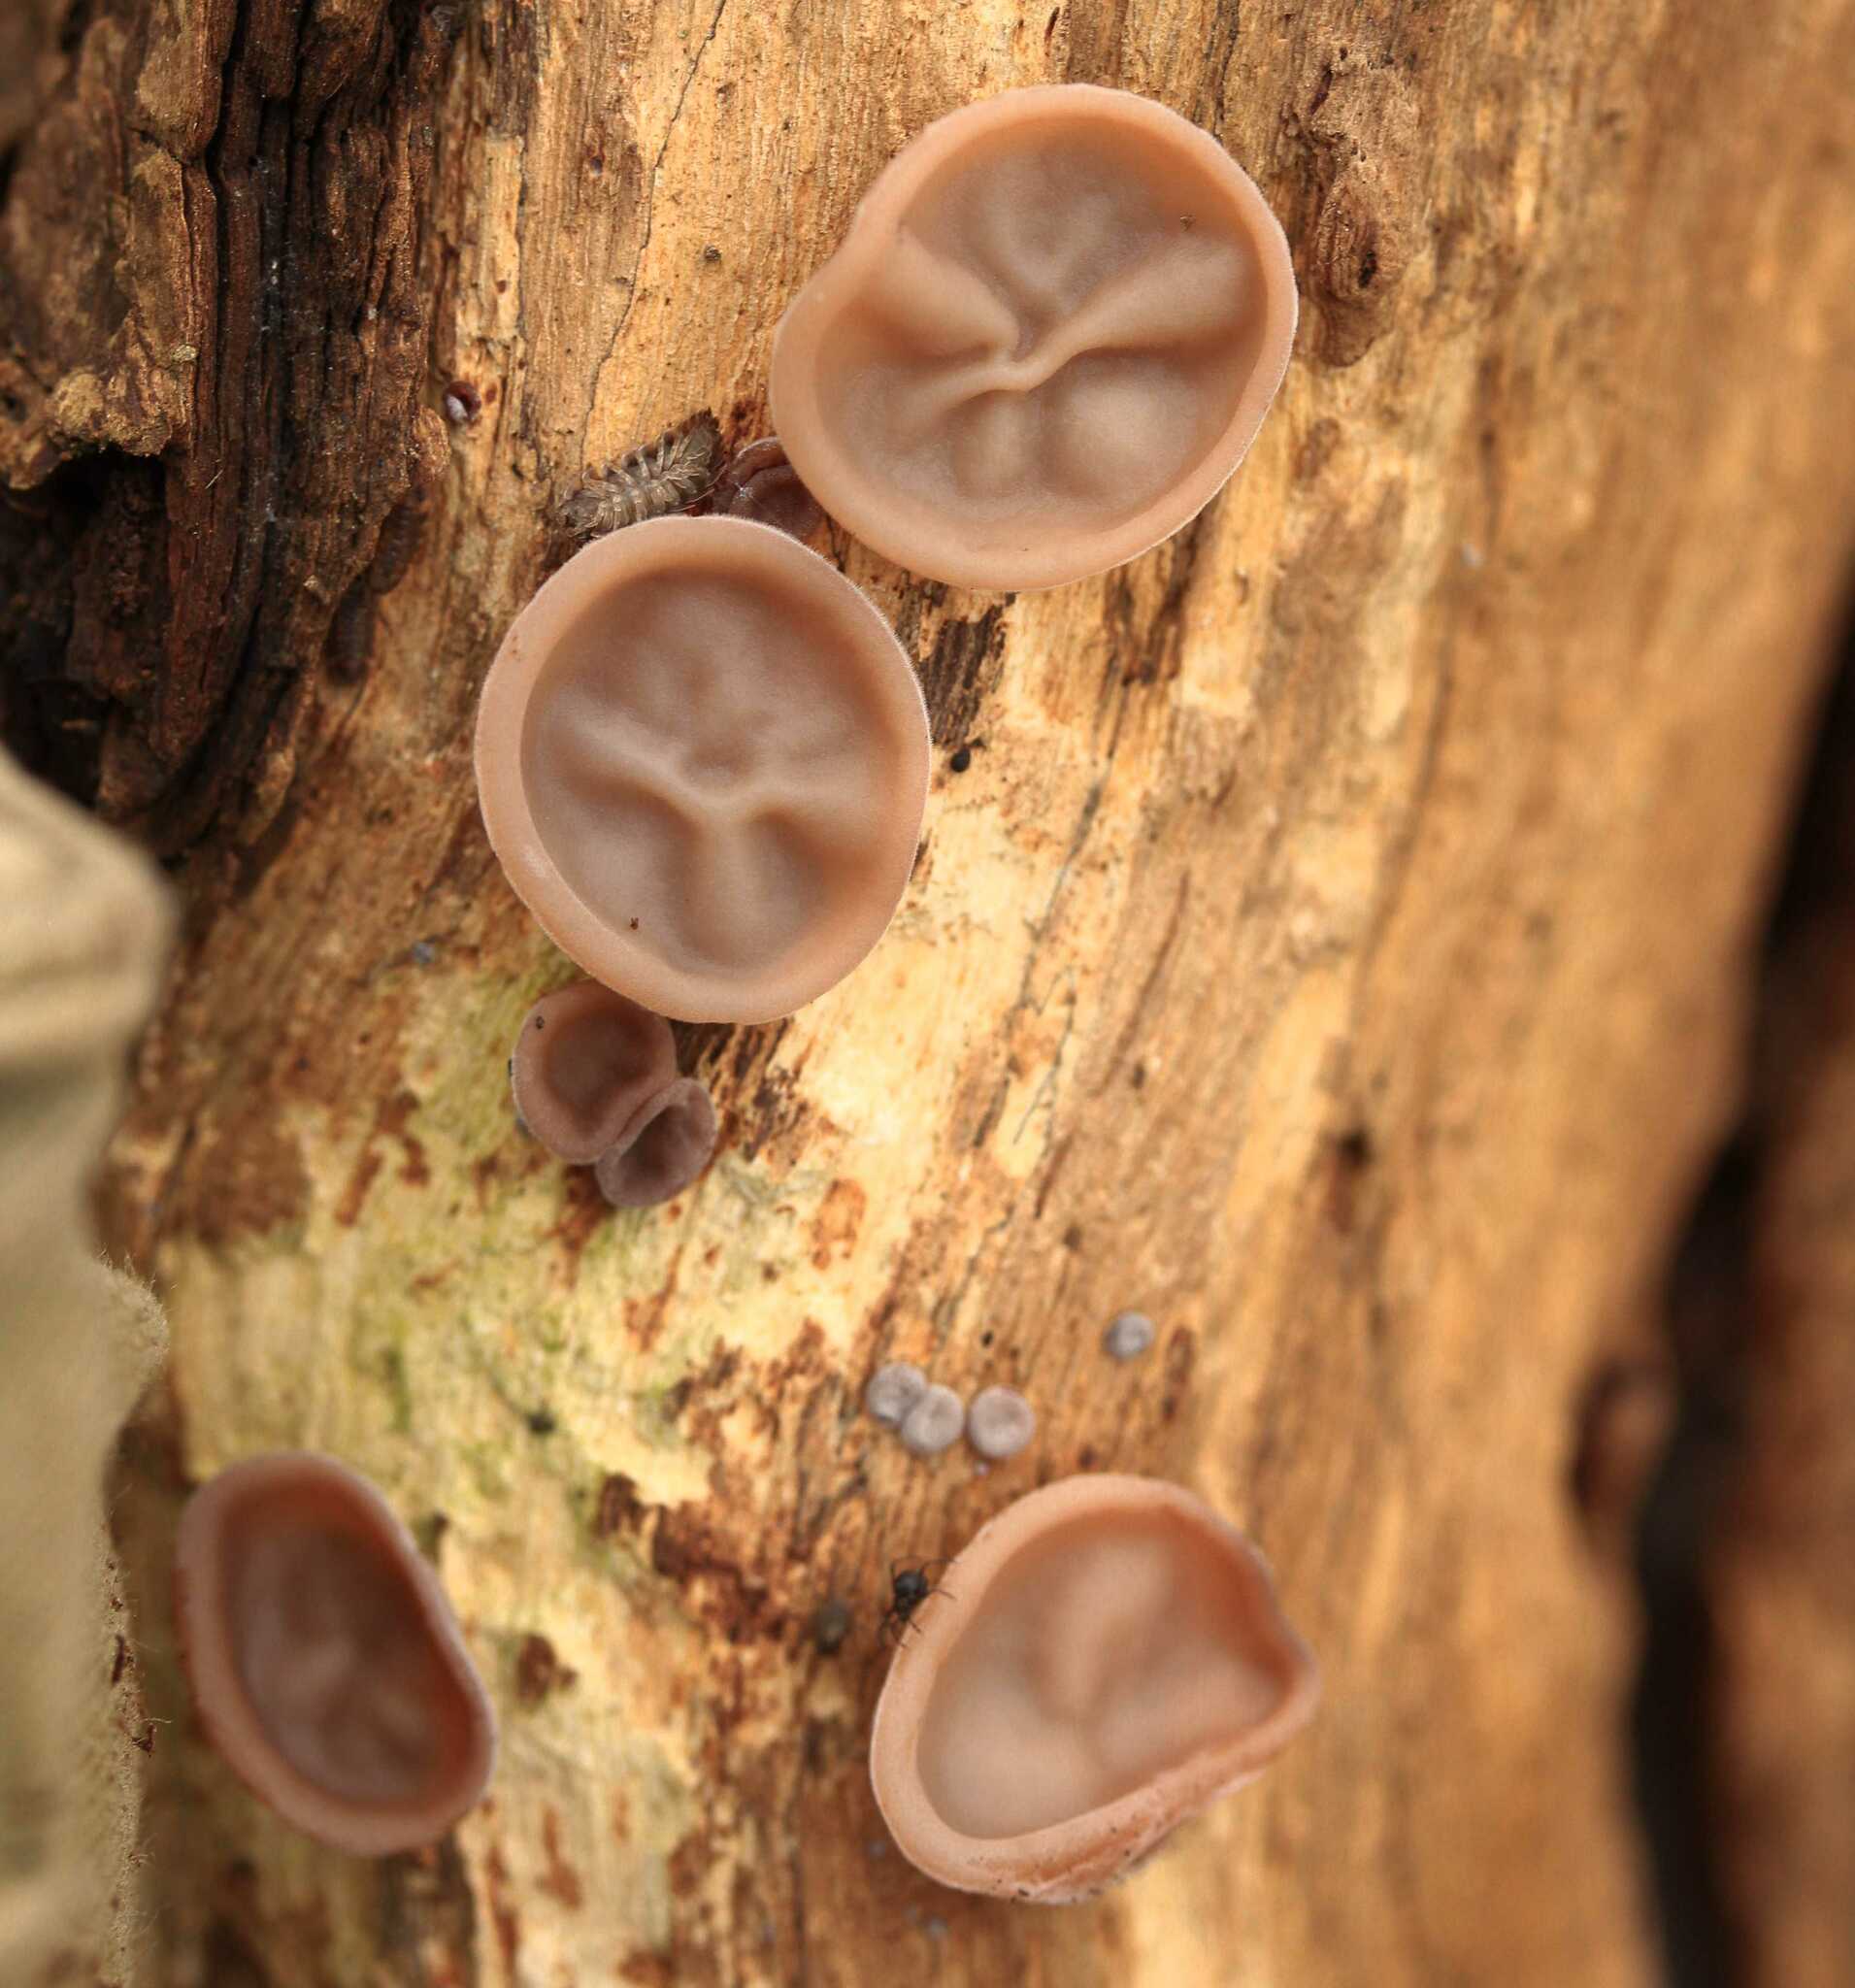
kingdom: Fungi
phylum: Basidiomycota
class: Agaricomycetes
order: Auriculariales
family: Auriculariaceae
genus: Auricularia
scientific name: Auricularia auricula-judae
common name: Jelly ear
